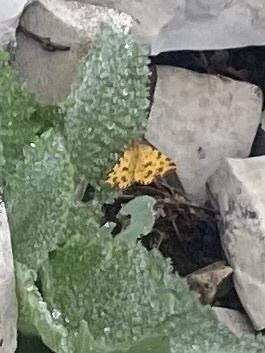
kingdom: Animalia
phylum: Arthropoda
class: Insecta
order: Lepidoptera
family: Geometridae
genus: Pseudopanthera
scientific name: Pseudopanthera macularia
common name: Speckled yellow
